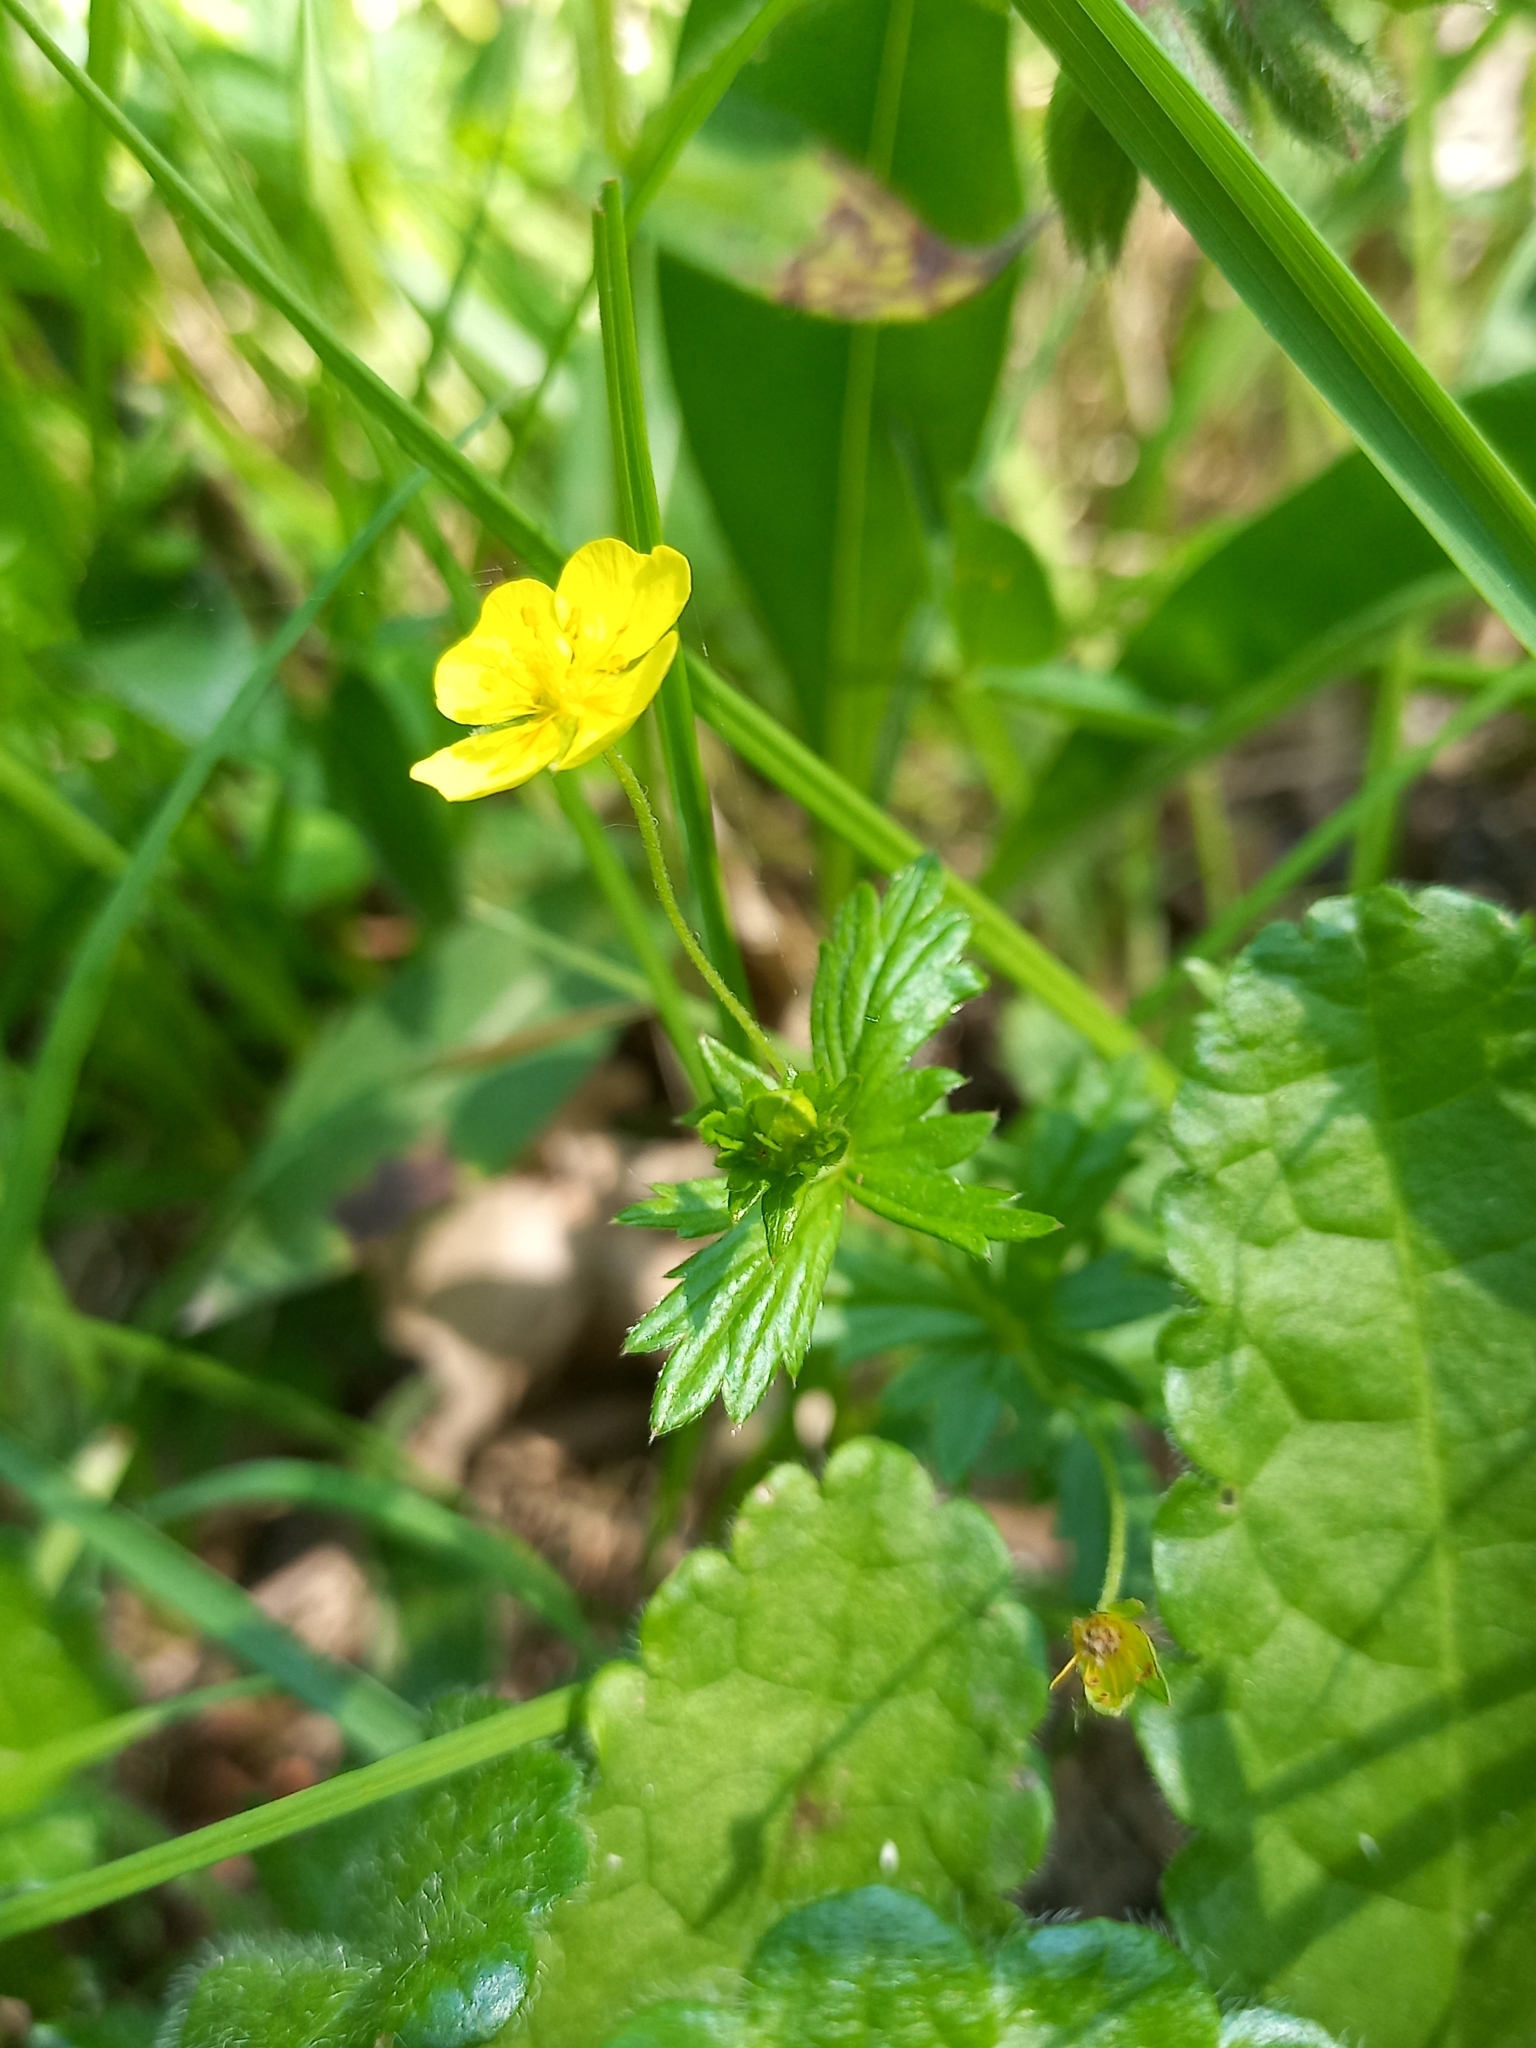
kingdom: Plantae
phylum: Tracheophyta
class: Magnoliopsida
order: Rosales
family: Rosaceae
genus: Potentilla
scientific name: Potentilla erecta
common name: Tormentil
